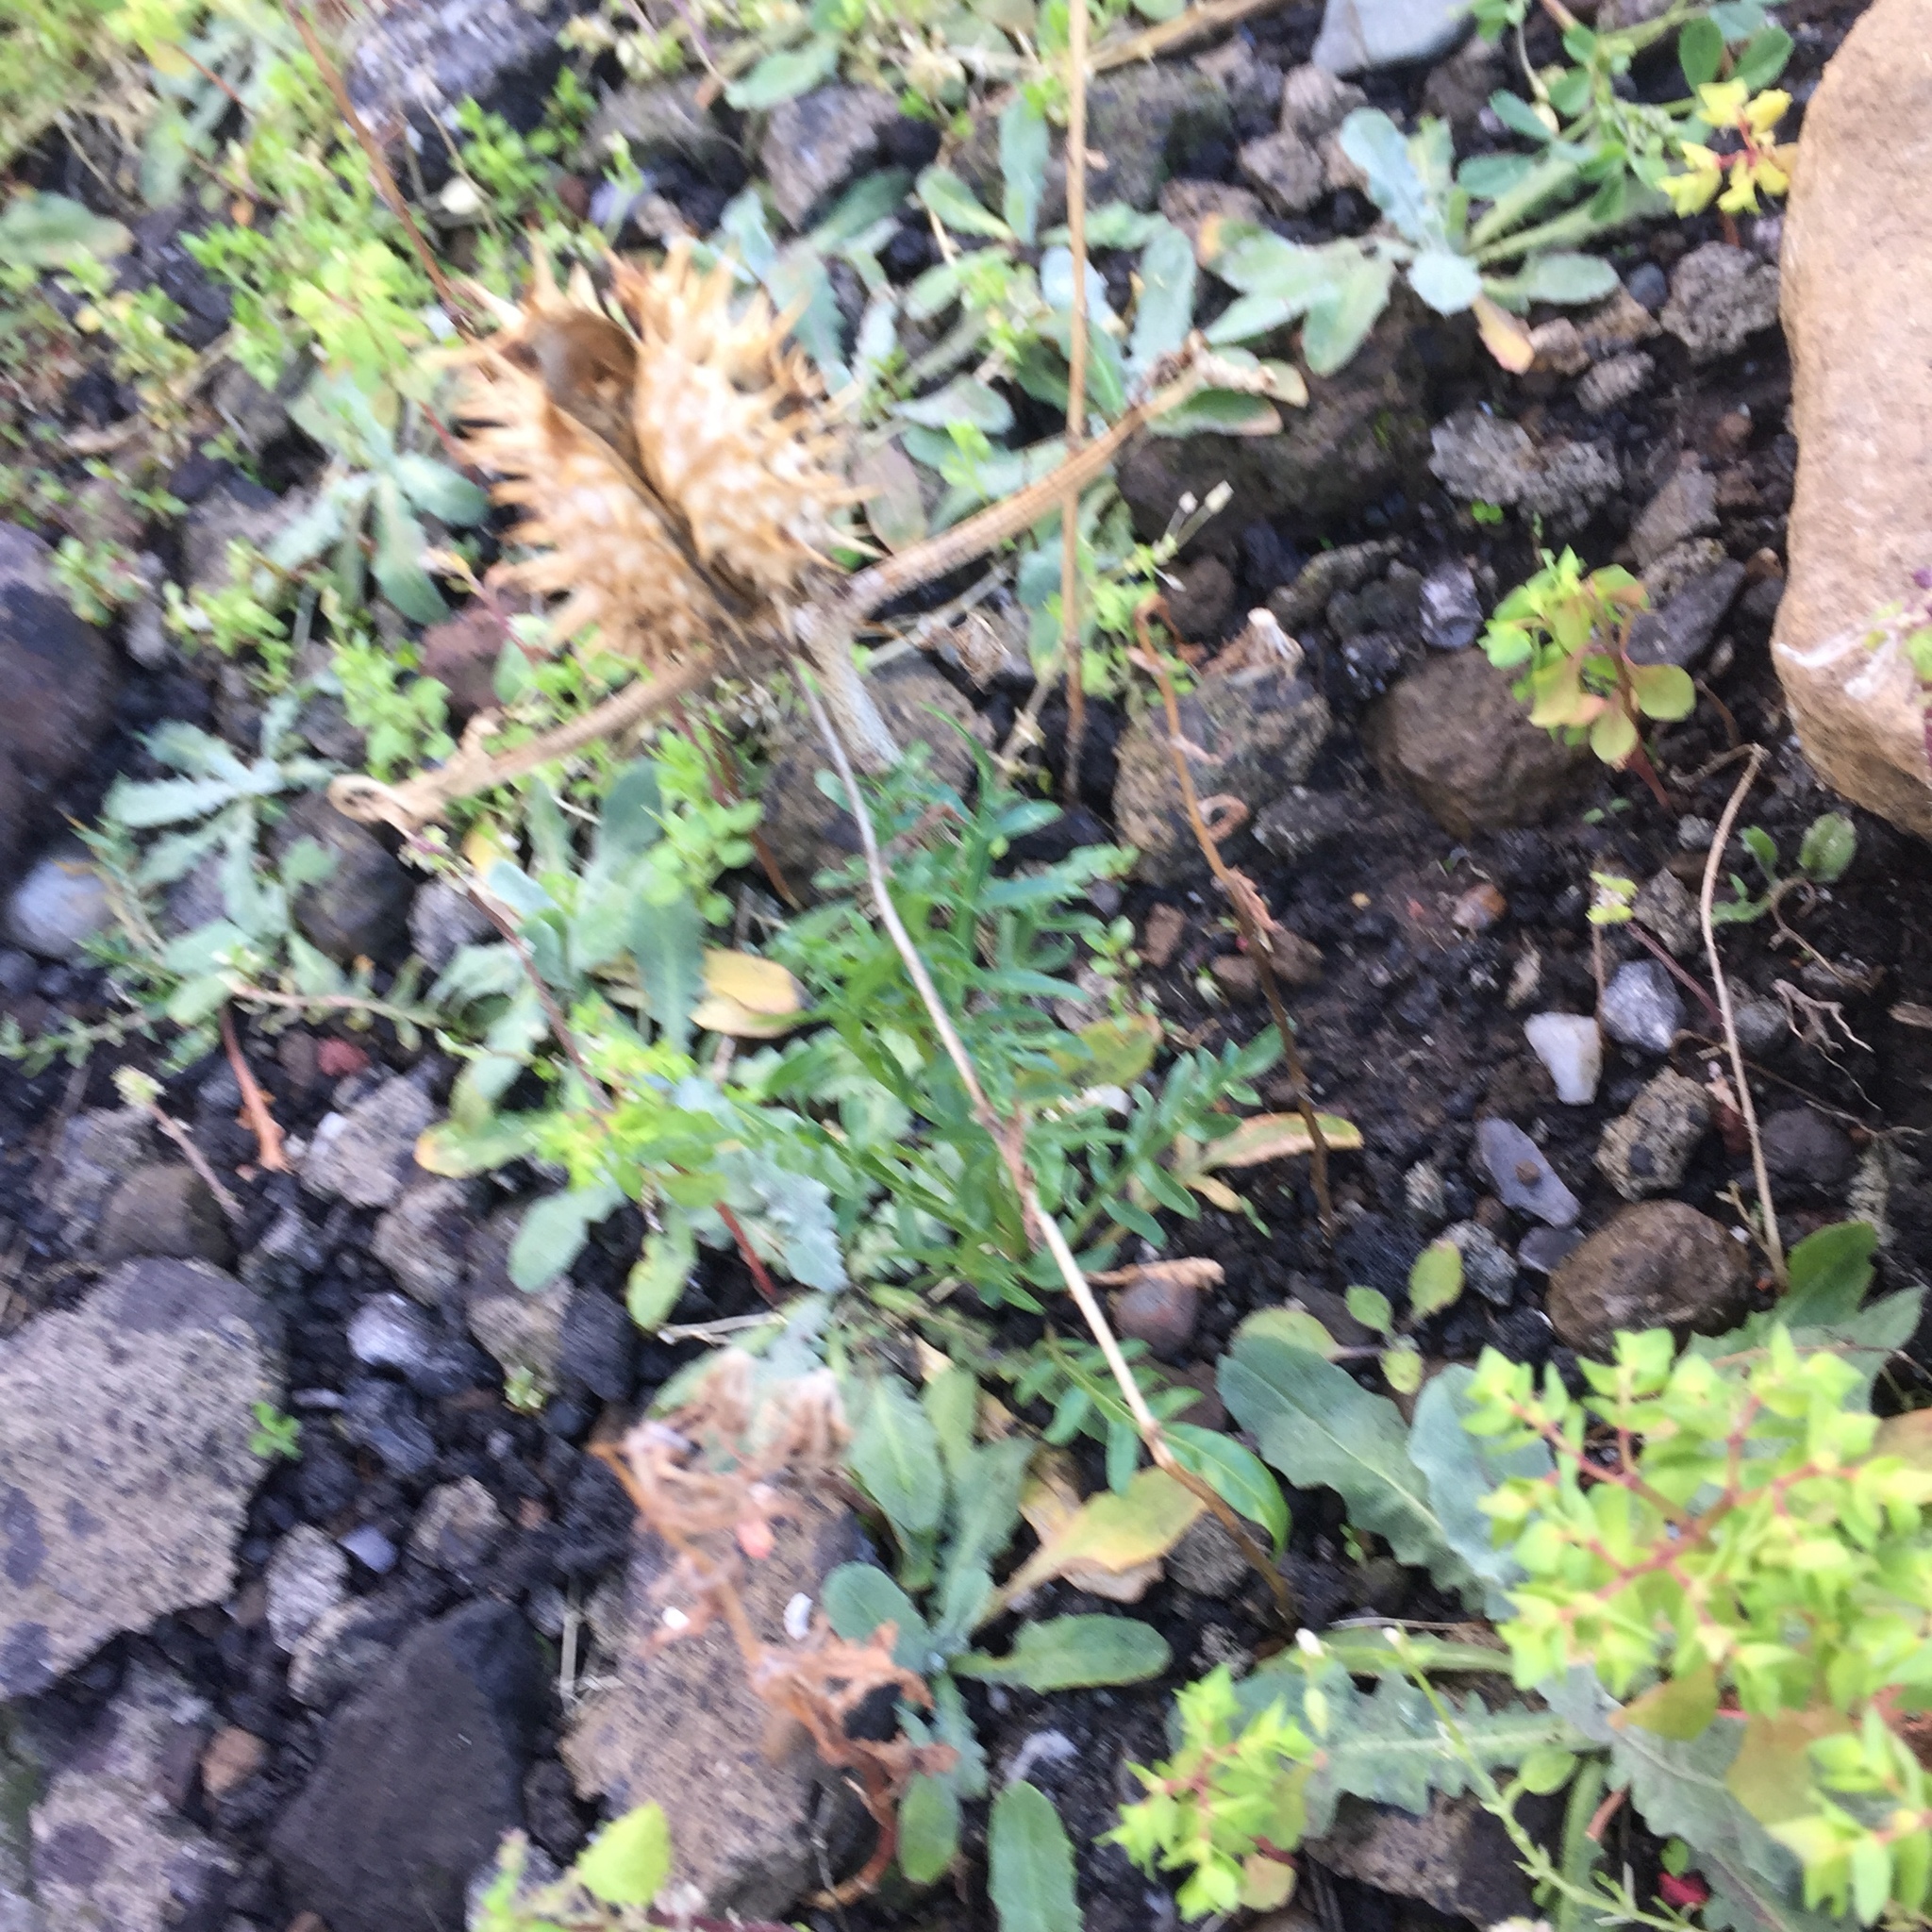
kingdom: Plantae
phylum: Tracheophyta
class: Magnoliopsida
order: Solanales
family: Solanaceae
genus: Datura
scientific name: Datura stramonium
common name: Thorn-apple
